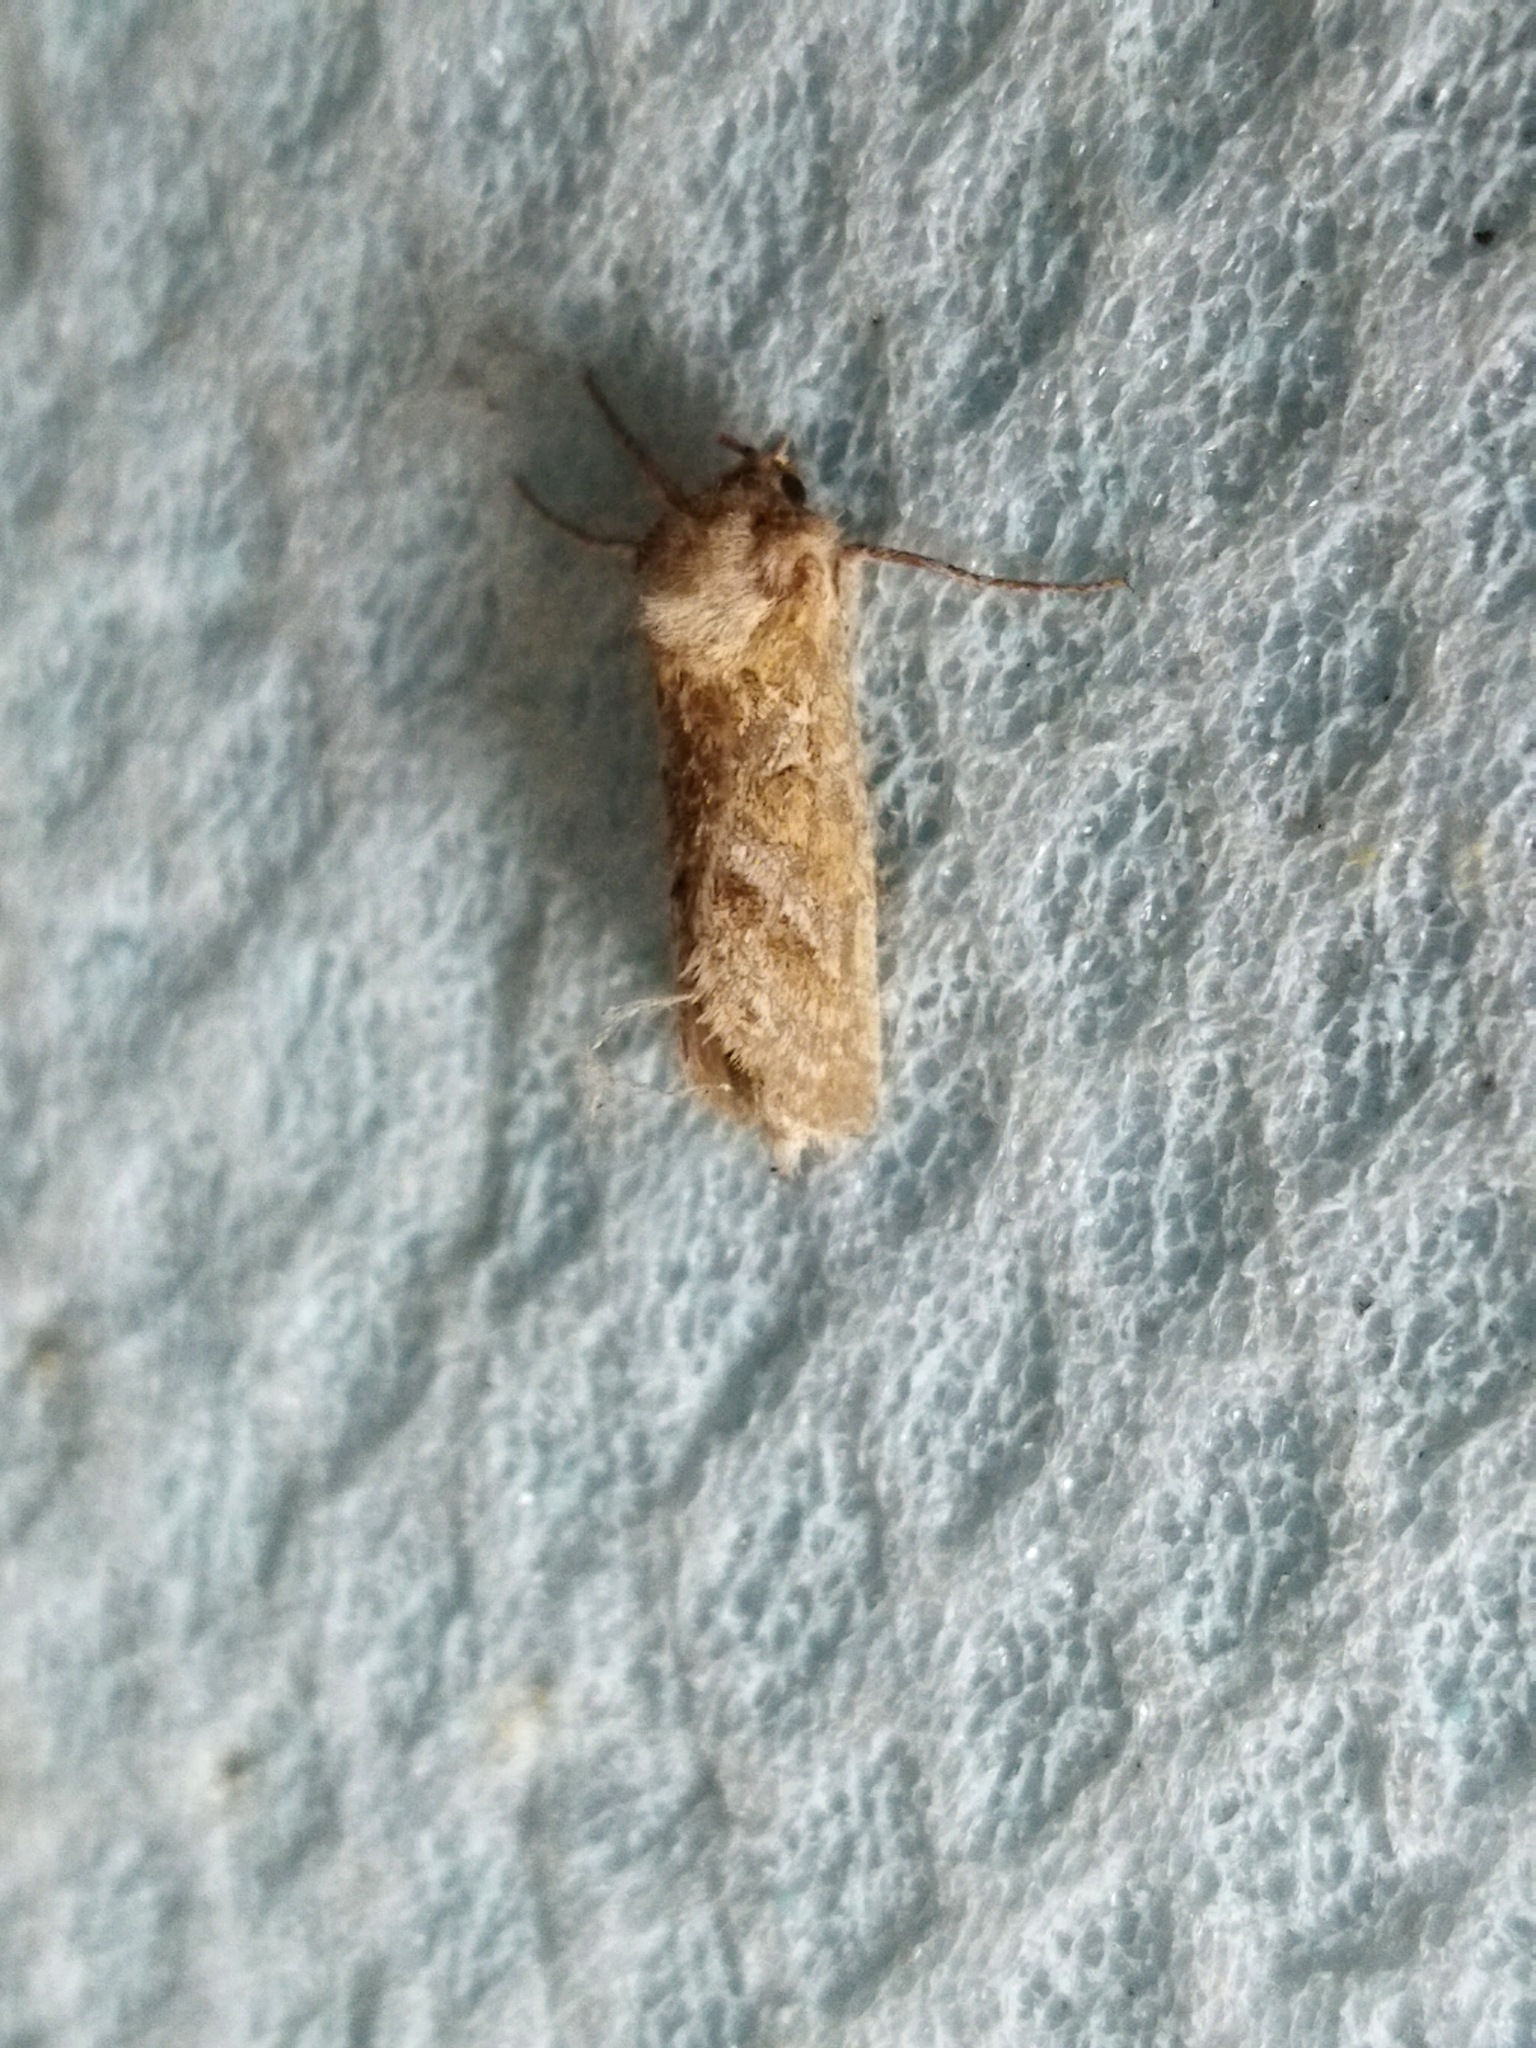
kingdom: Animalia
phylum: Arthropoda
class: Insecta
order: Lepidoptera
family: Hepialidae
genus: Triodia
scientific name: Triodia amasinus
